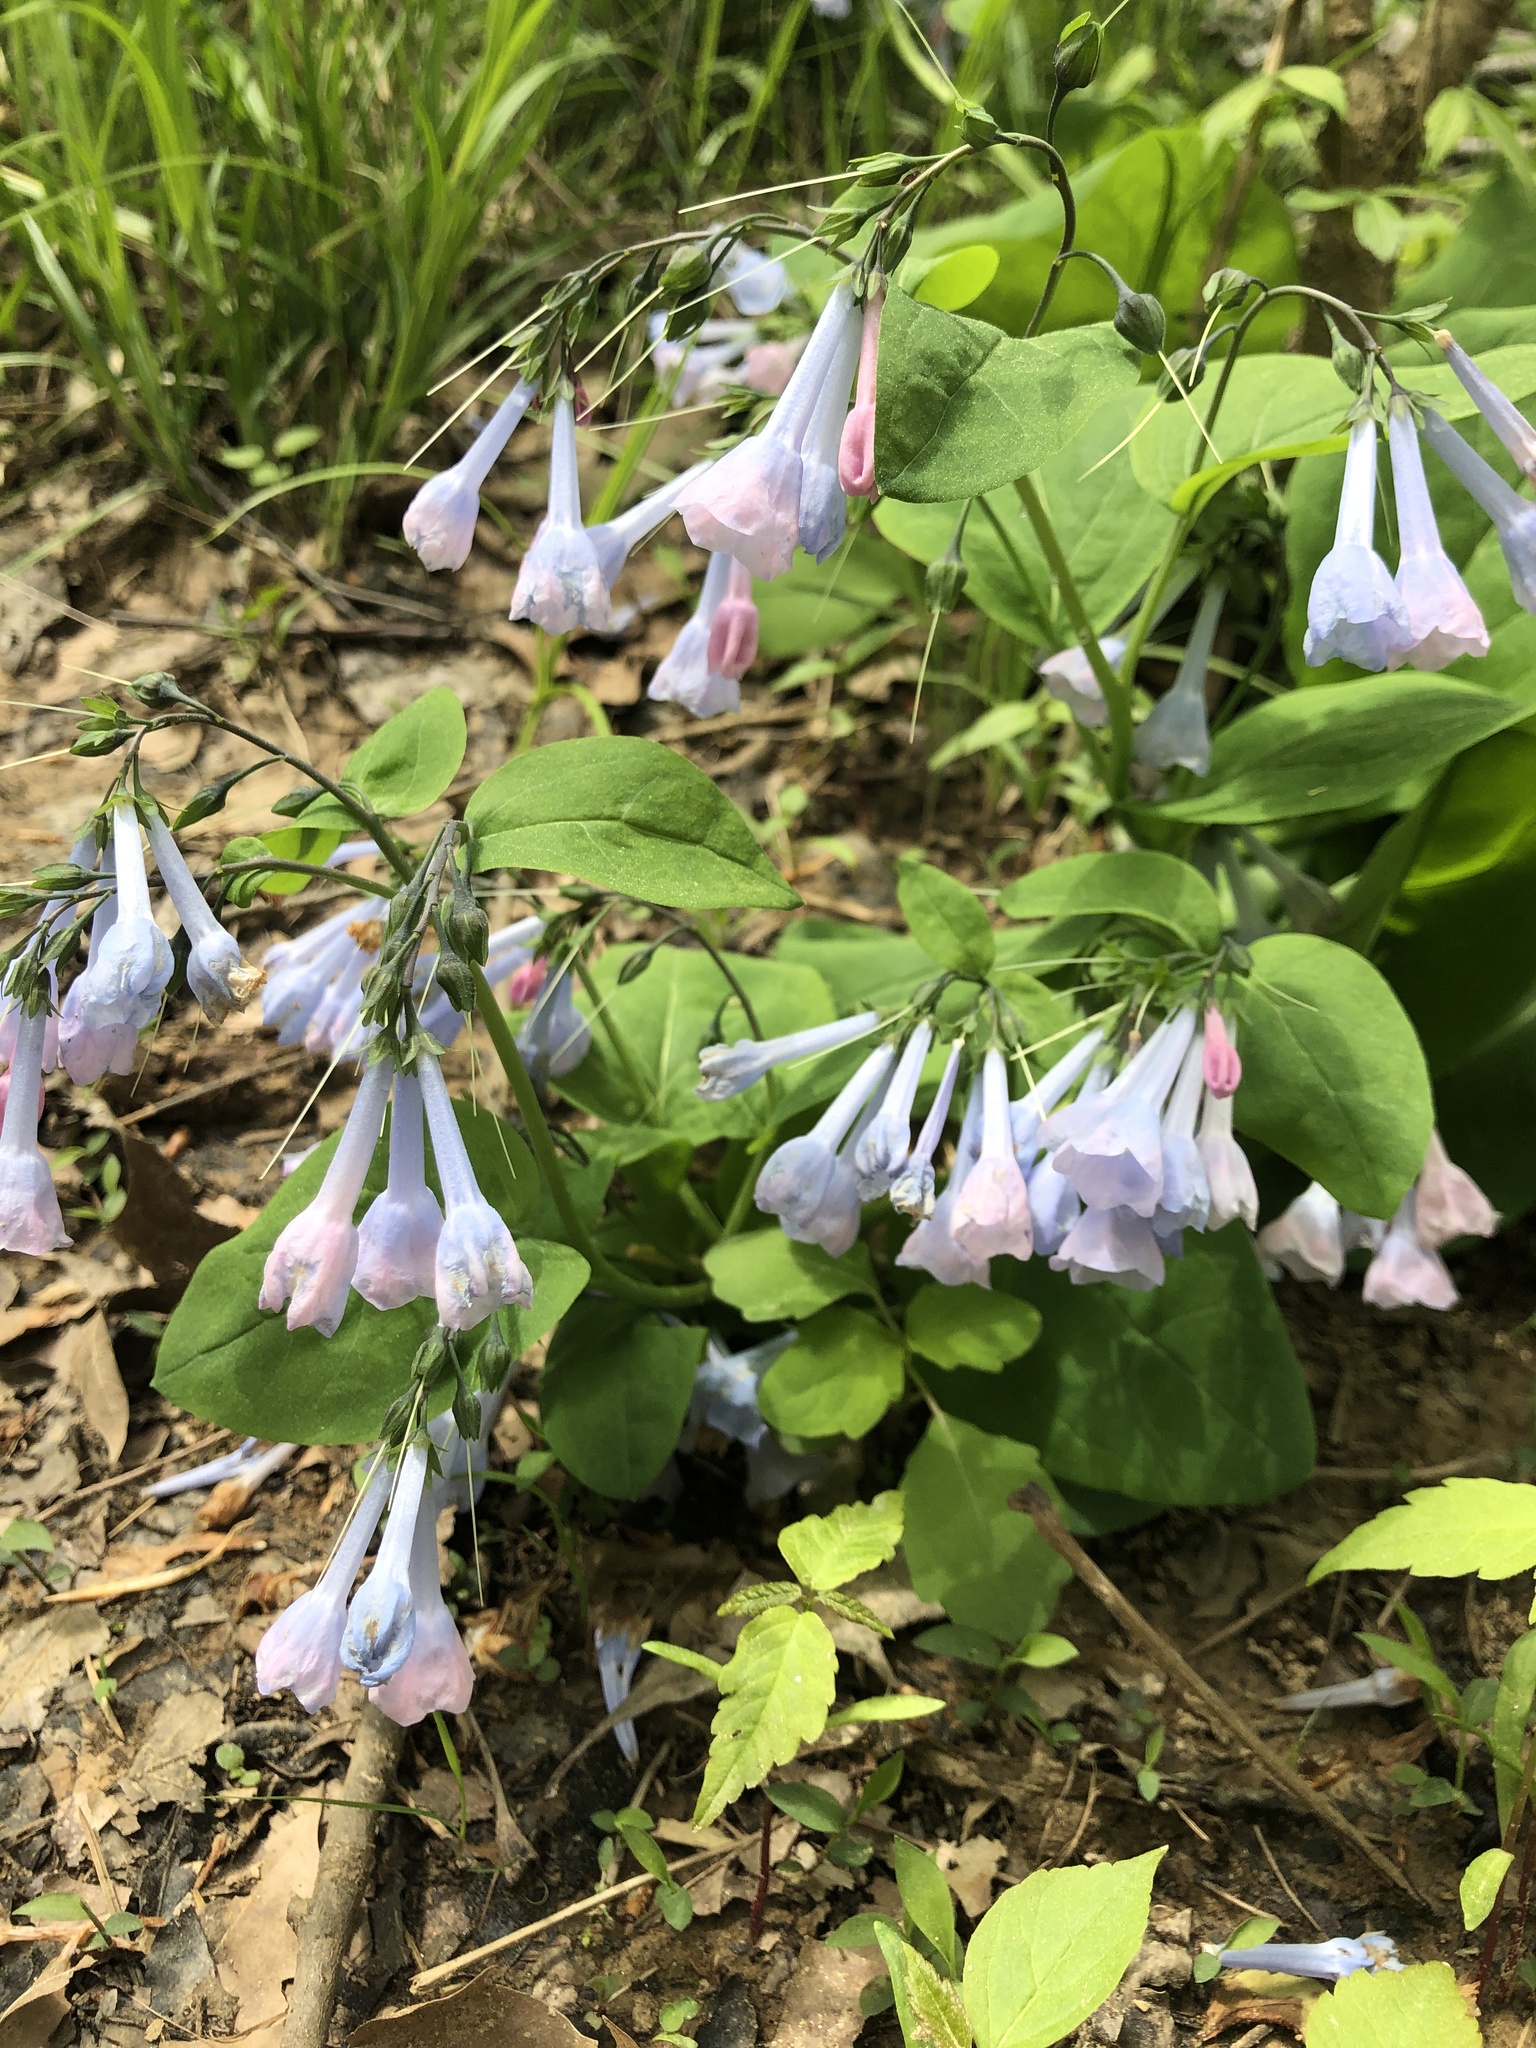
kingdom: Plantae
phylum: Tracheophyta
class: Magnoliopsida
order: Boraginales
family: Boraginaceae
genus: Mertensia
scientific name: Mertensia virginica
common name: Virginia bluebells
